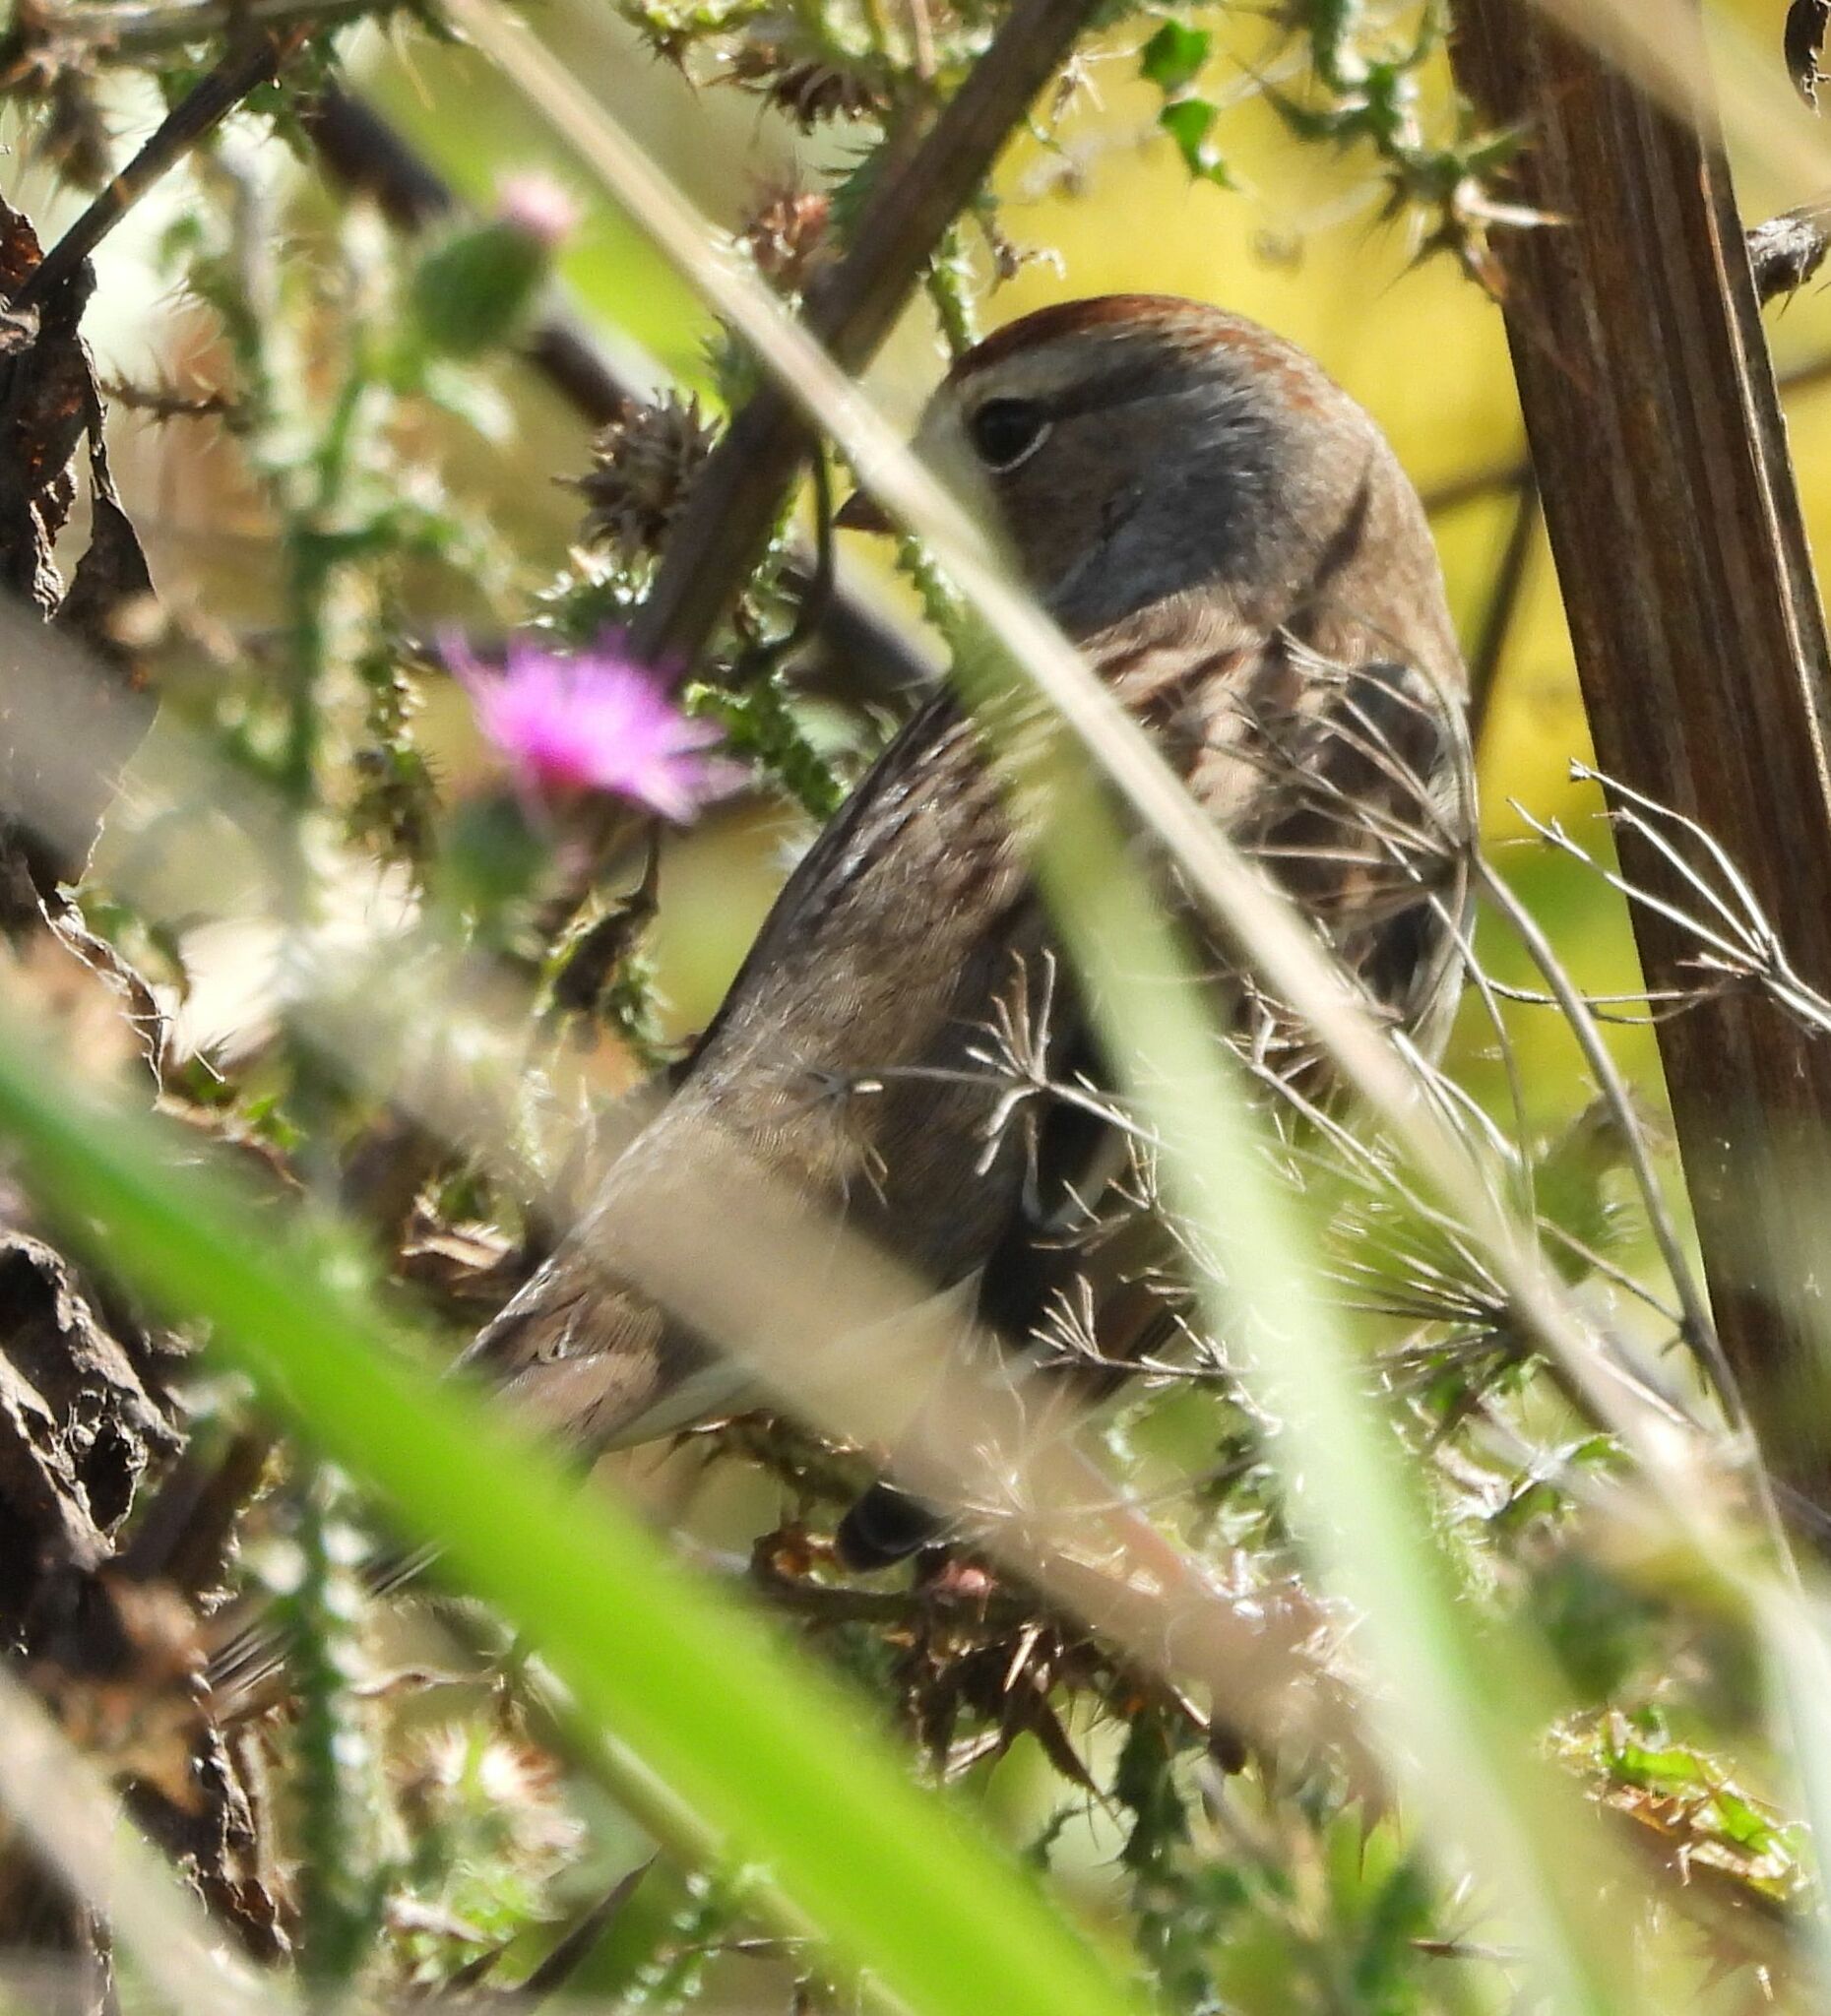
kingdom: Animalia
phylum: Chordata
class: Aves
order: Passeriformes
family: Passerellidae
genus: Zonotrichia
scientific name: Zonotrichia leucophrys
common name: White-crowned sparrow
